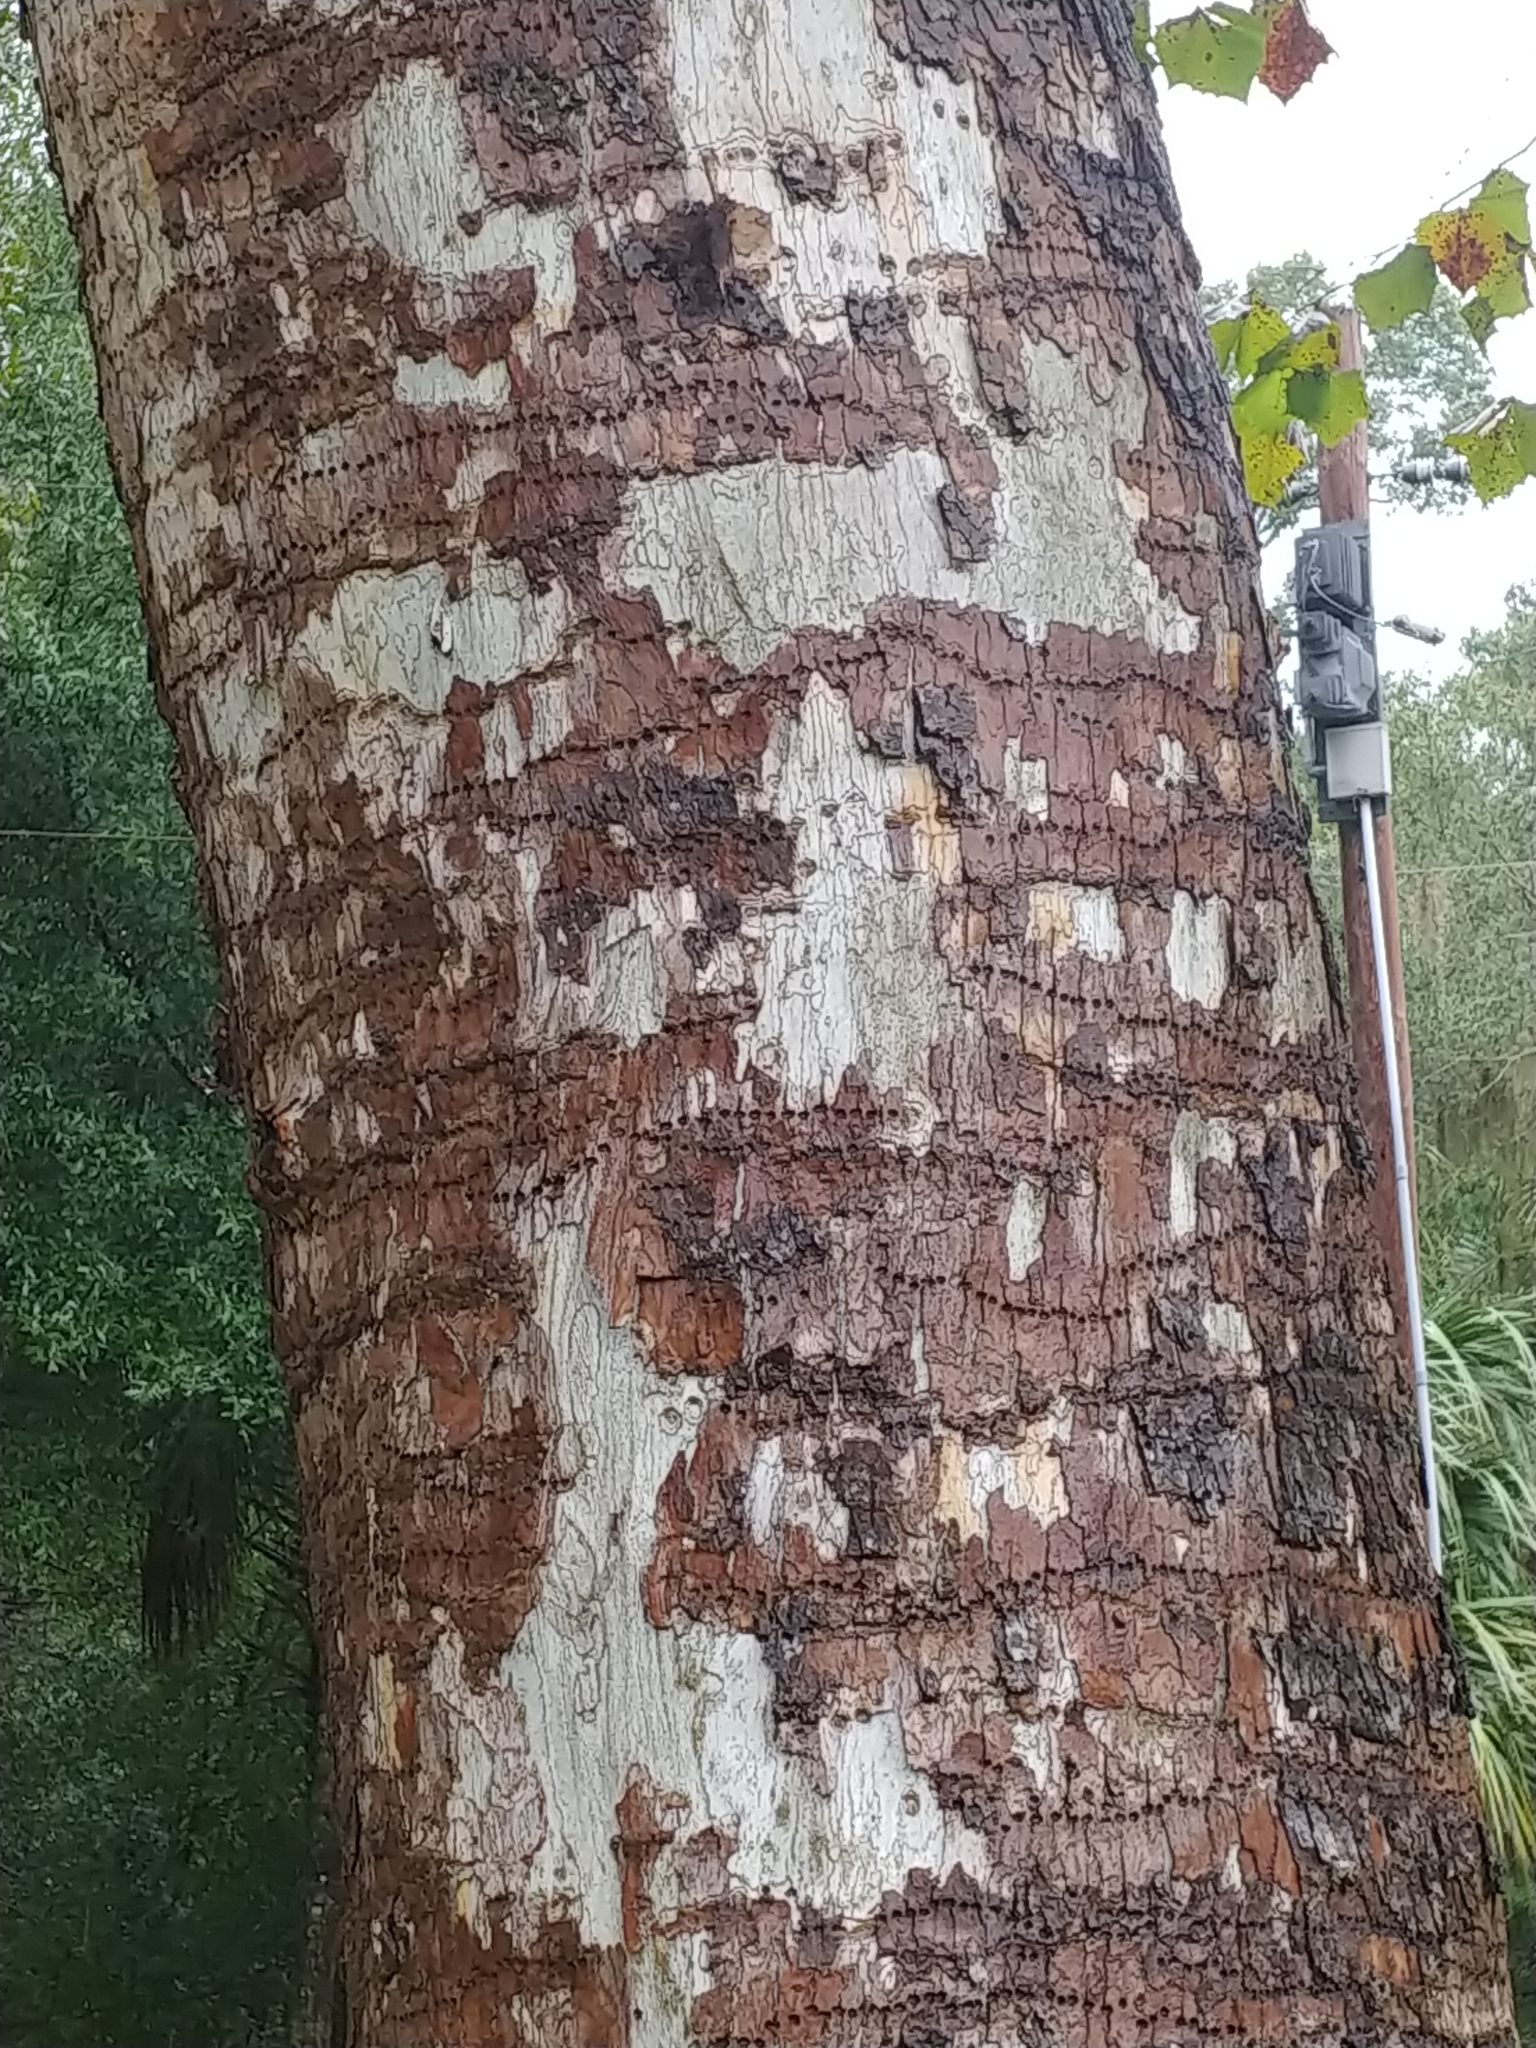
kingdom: Plantae
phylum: Tracheophyta
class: Magnoliopsida
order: Proteales
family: Platanaceae
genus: Platanus
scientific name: Platanus occidentalis
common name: American sycamore
